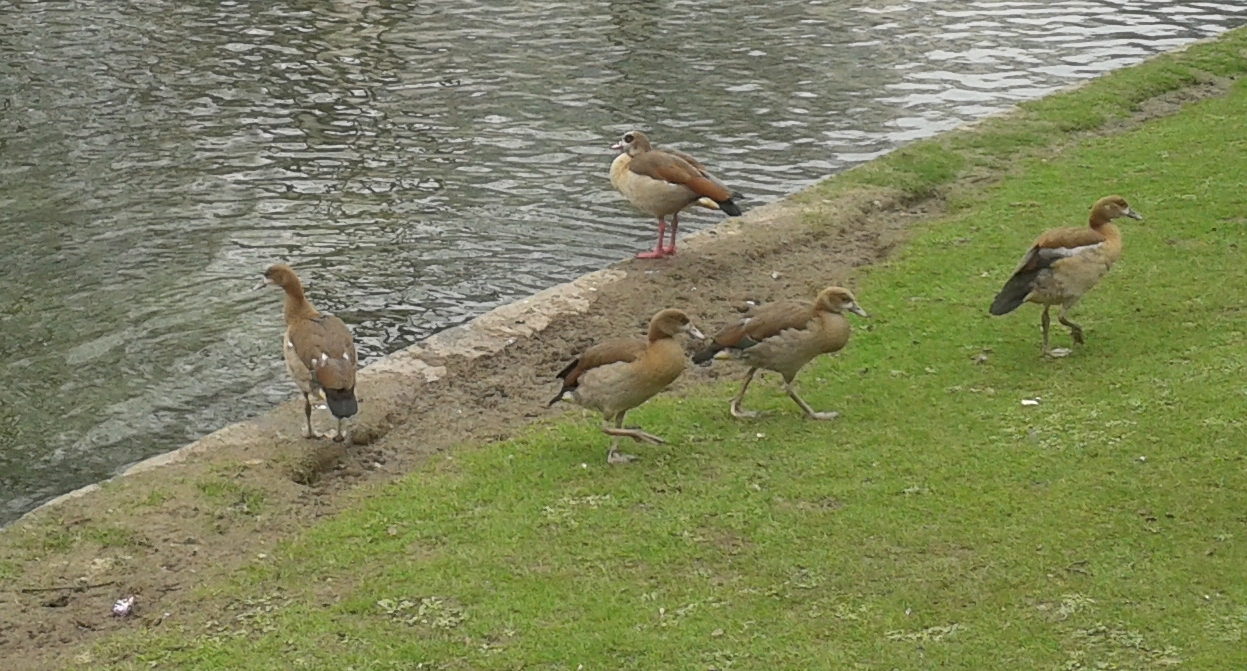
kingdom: Animalia
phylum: Chordata
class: Aves
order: Anseriformes
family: Anatidae
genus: Alopochen
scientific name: Alopochen aegyptiaca
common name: Egyptian goose
